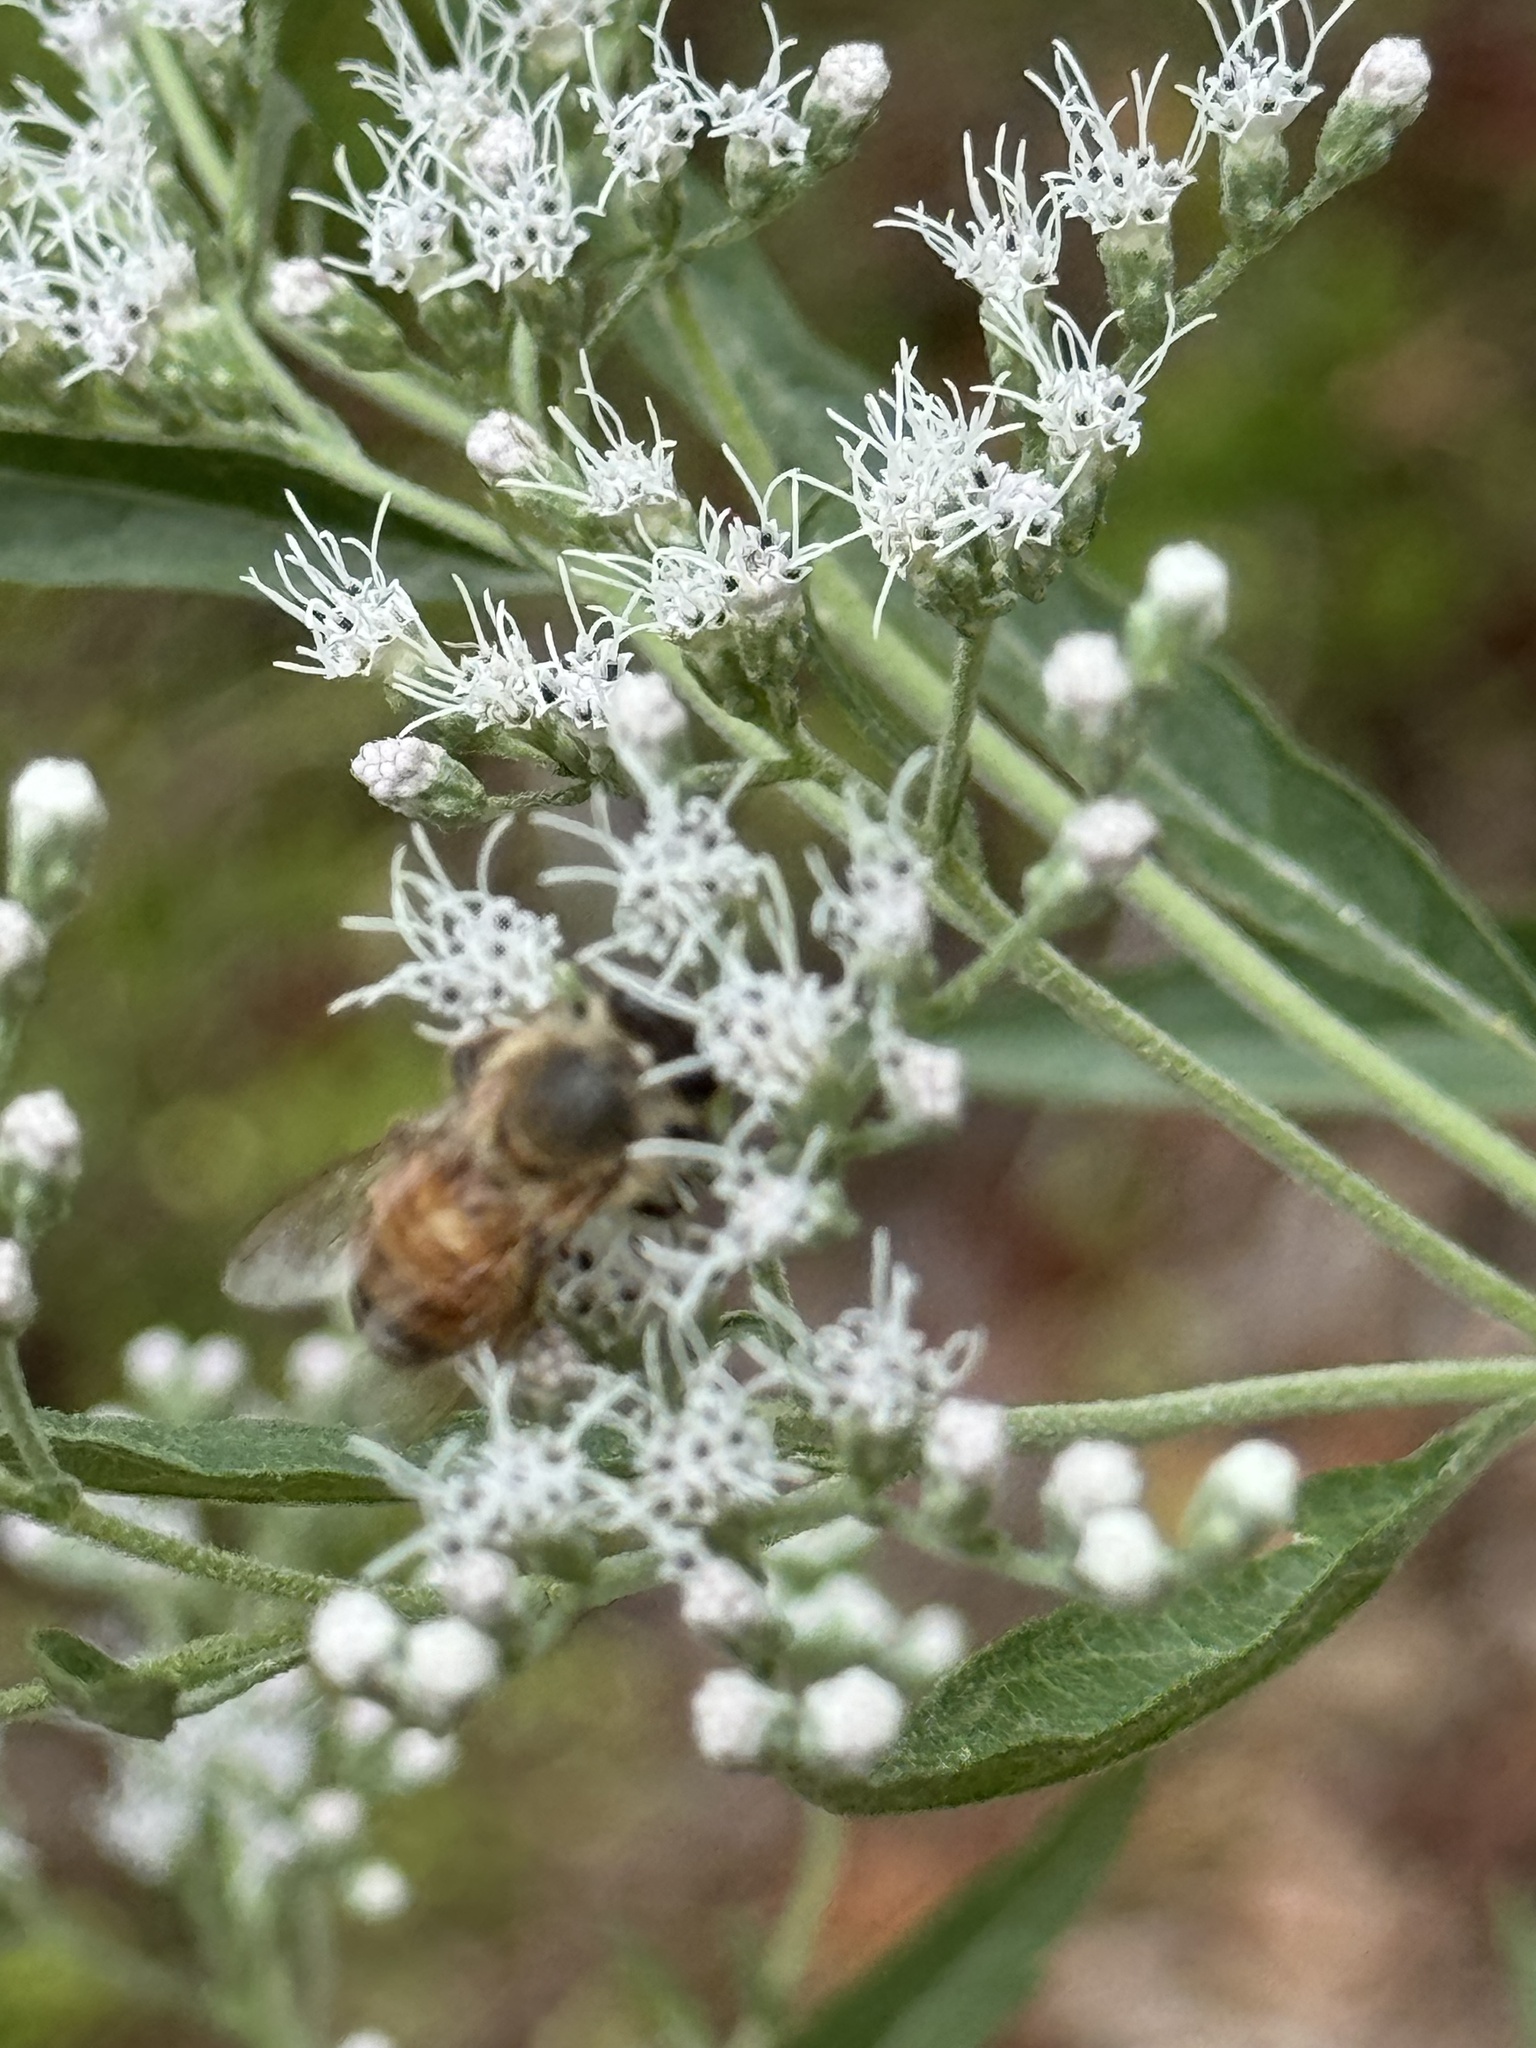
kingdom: Plantae
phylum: Tracheophyta
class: Magnoliopsida
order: Asterales
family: Asteraceae
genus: Eupatorium
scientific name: Eupatorium serotinum
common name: Late boneset
